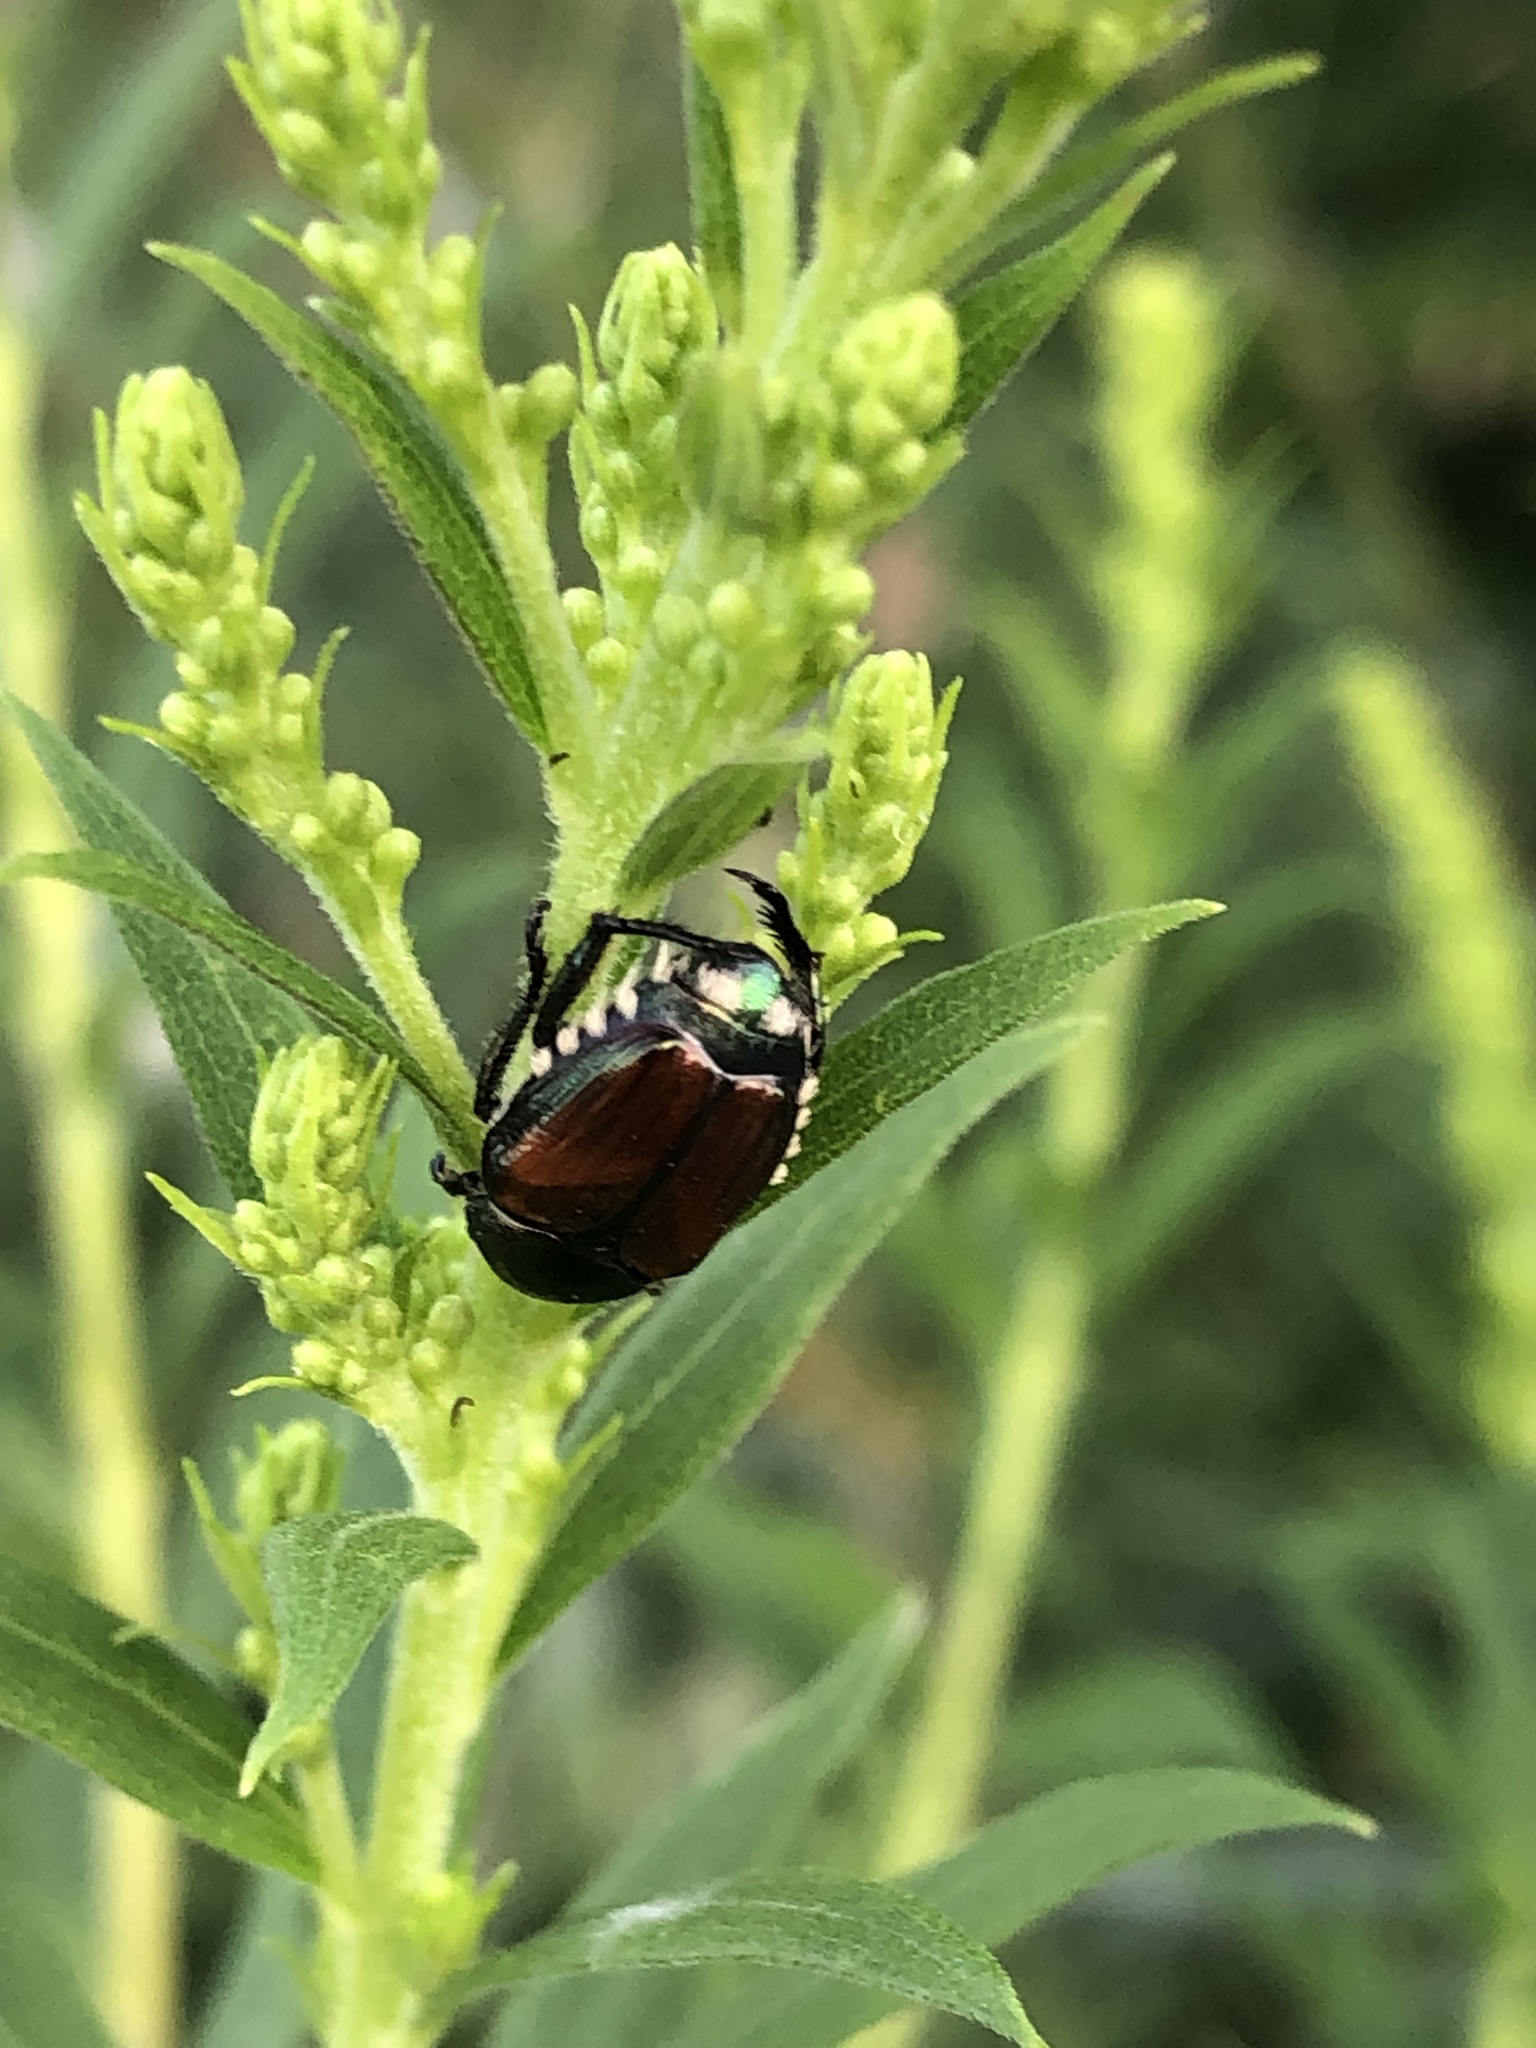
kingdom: Animalia
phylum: Arthropoda
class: Insecta
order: Coleoptera
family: Scarabaeidae
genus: Popillia
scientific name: Popillia japonica
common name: Japanese beetle
